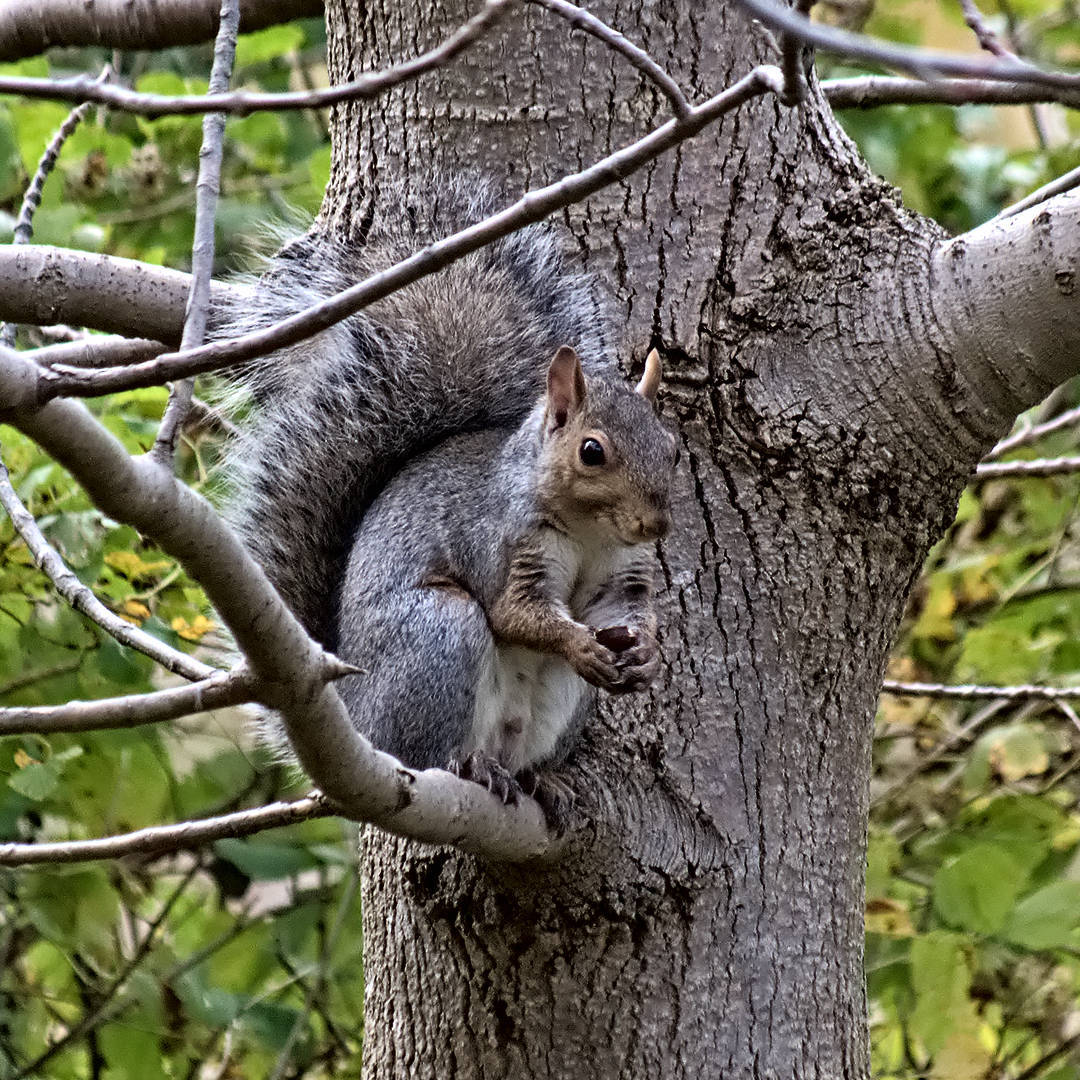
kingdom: Animalia
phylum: Chordata
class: Mammalia
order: Rodentia
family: Sciuridae
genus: Sciurus
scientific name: Sciurus carolinensis
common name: Eastern gray squirrel
